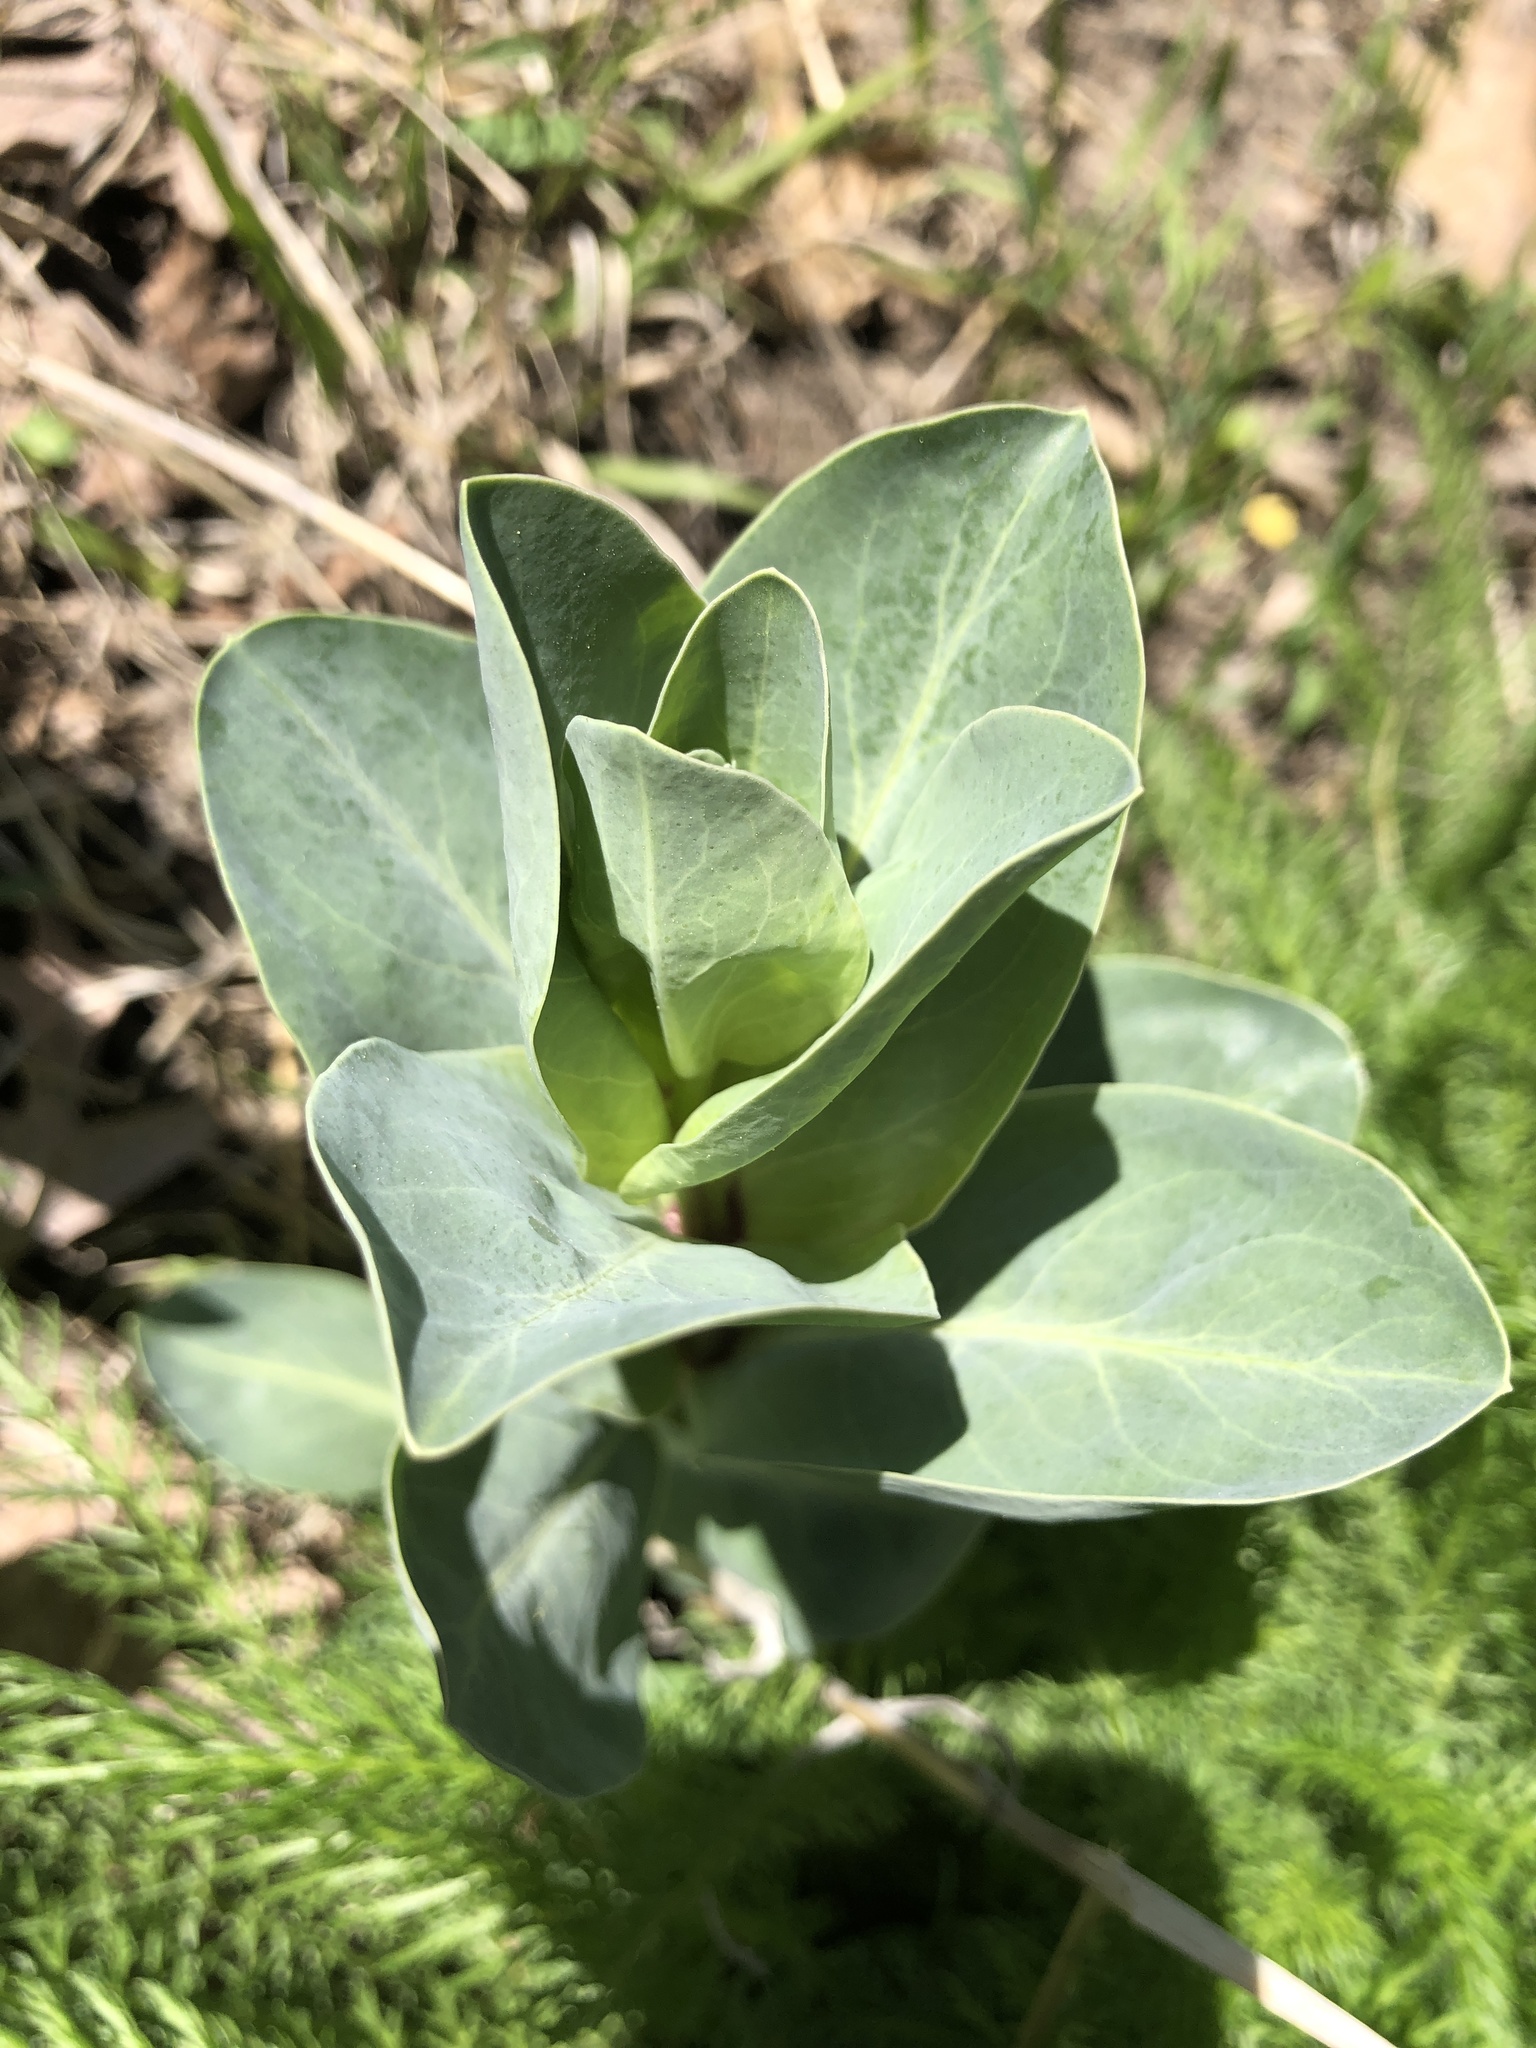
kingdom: Plantae
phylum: Tracheophyta
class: Magnoliopsida
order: Lamiales
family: Plantaginaceae
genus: Penstemon
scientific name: Penstemon
